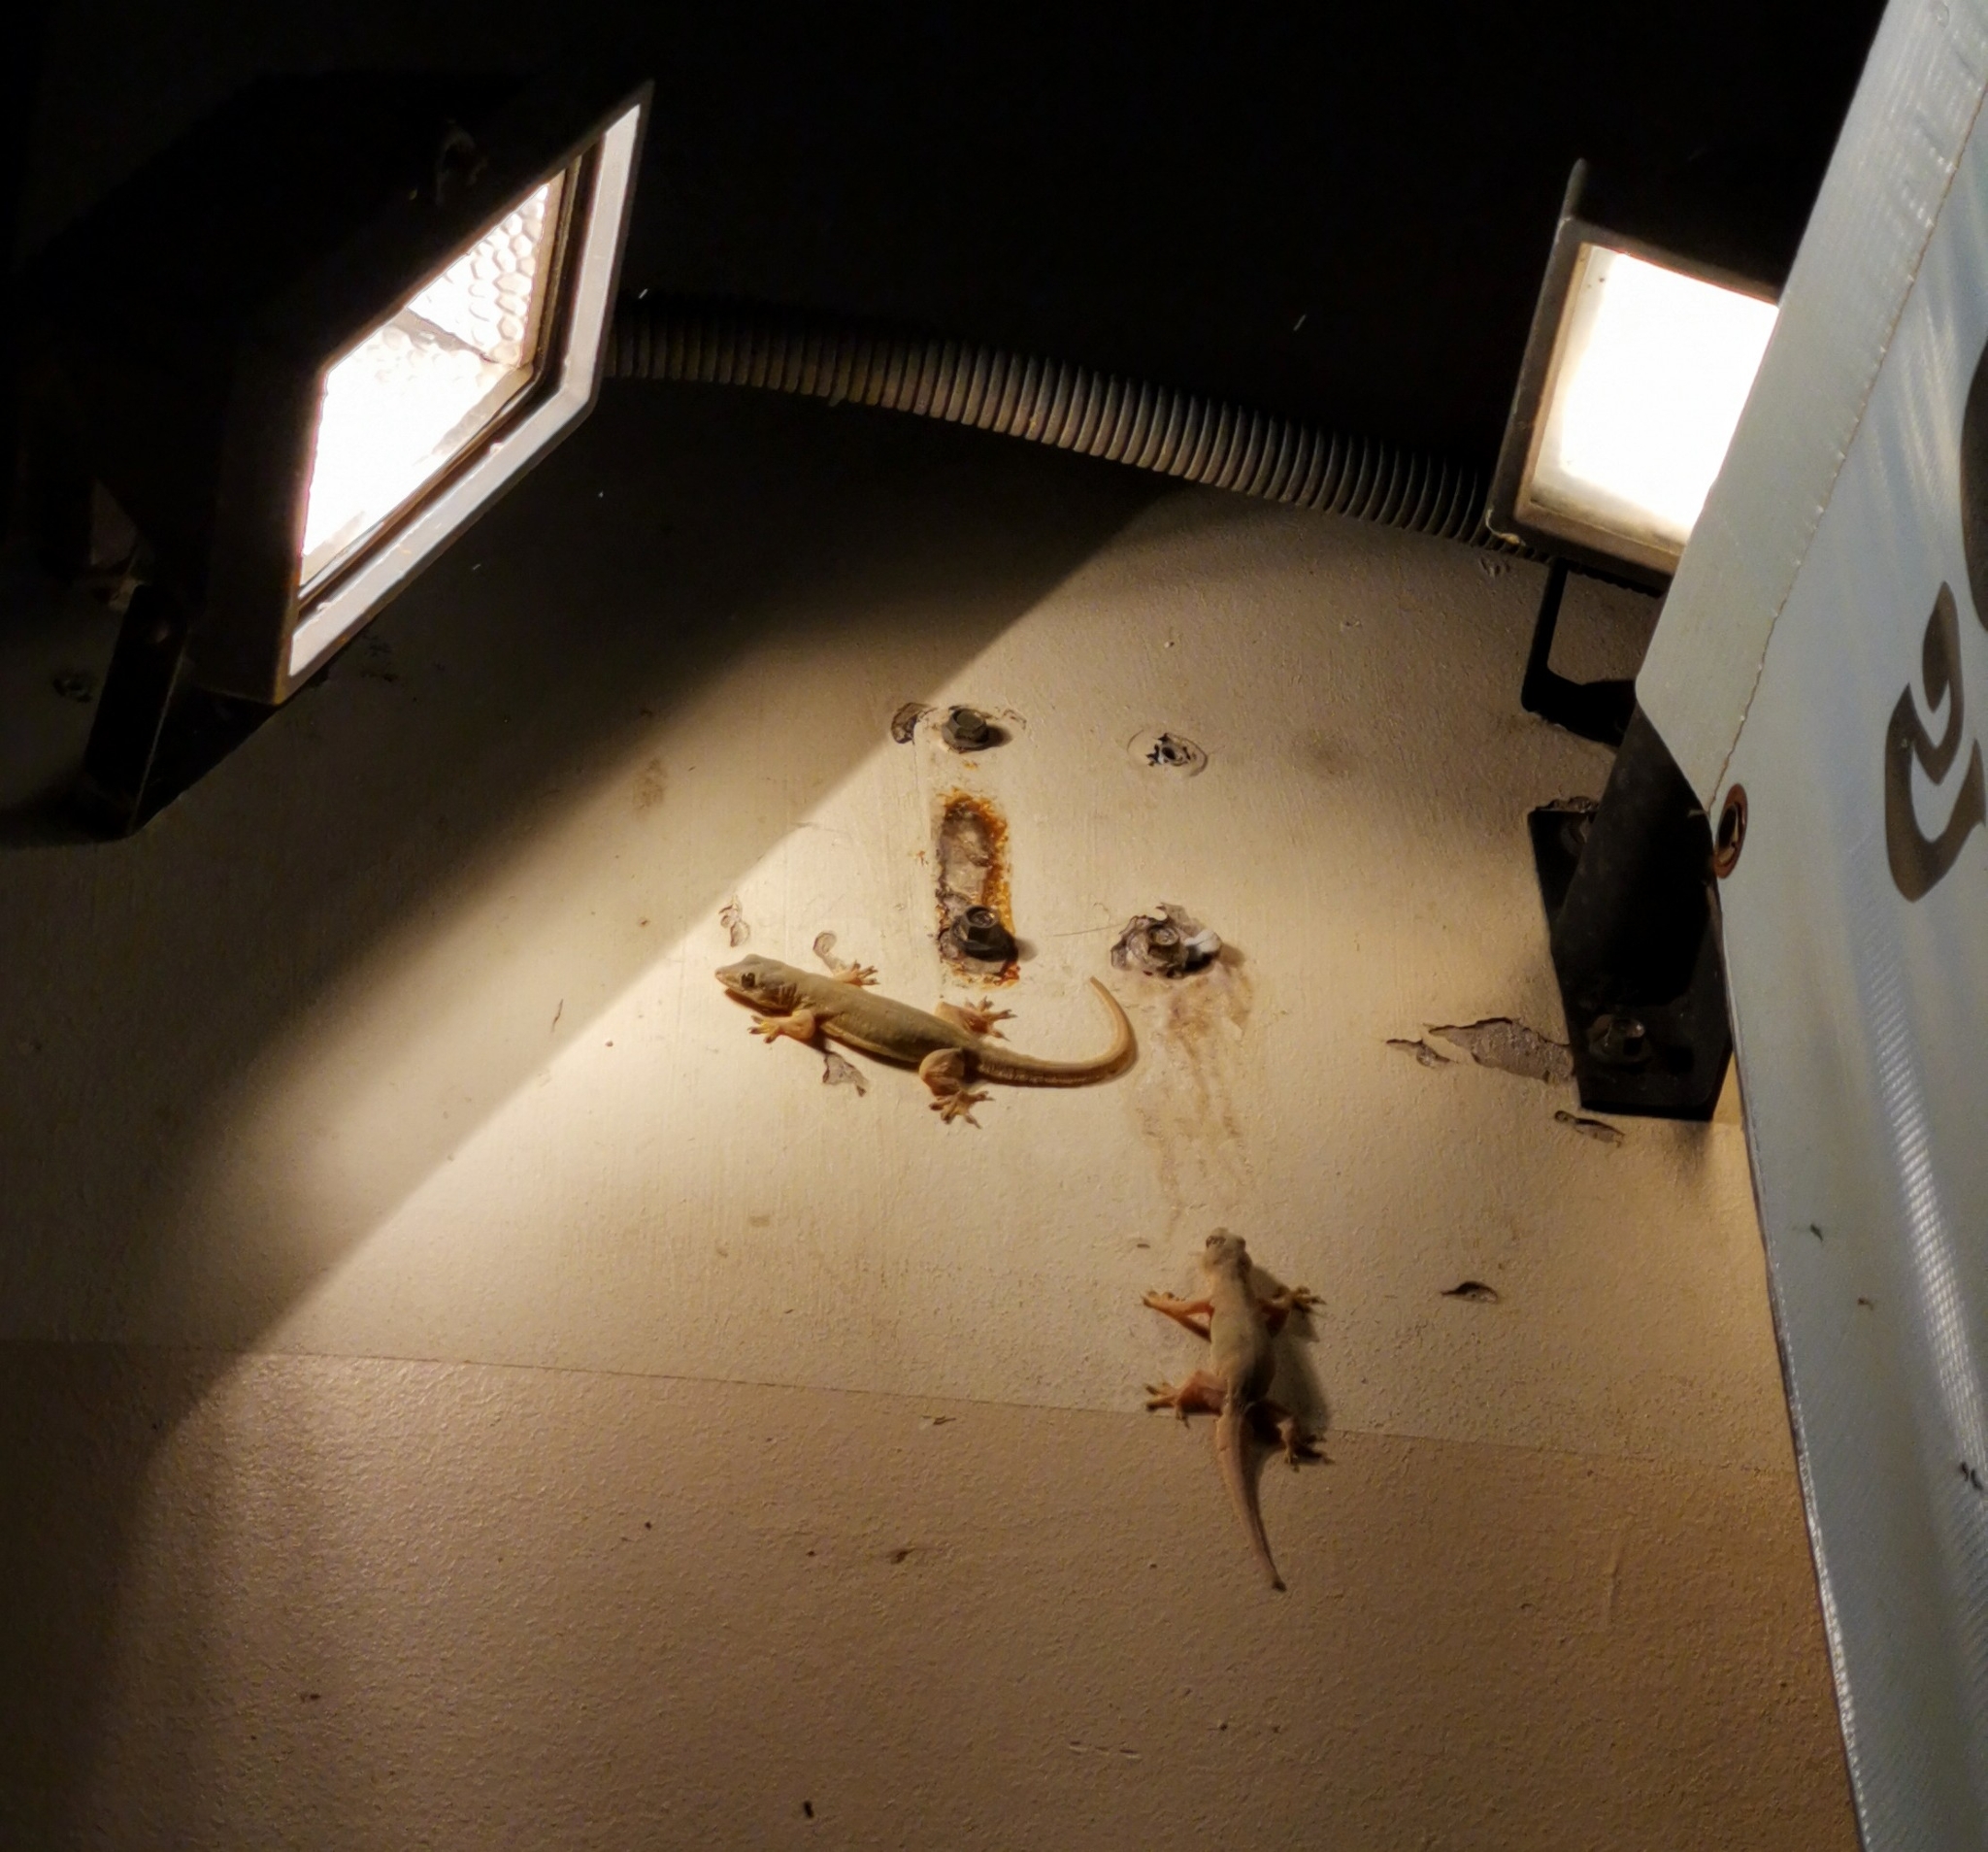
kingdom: Animalia
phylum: Chordata
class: Squamata
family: Gekkonidae
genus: Hemidactylus
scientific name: Hemidactylus platyurus
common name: Flat-tailed house gecko
